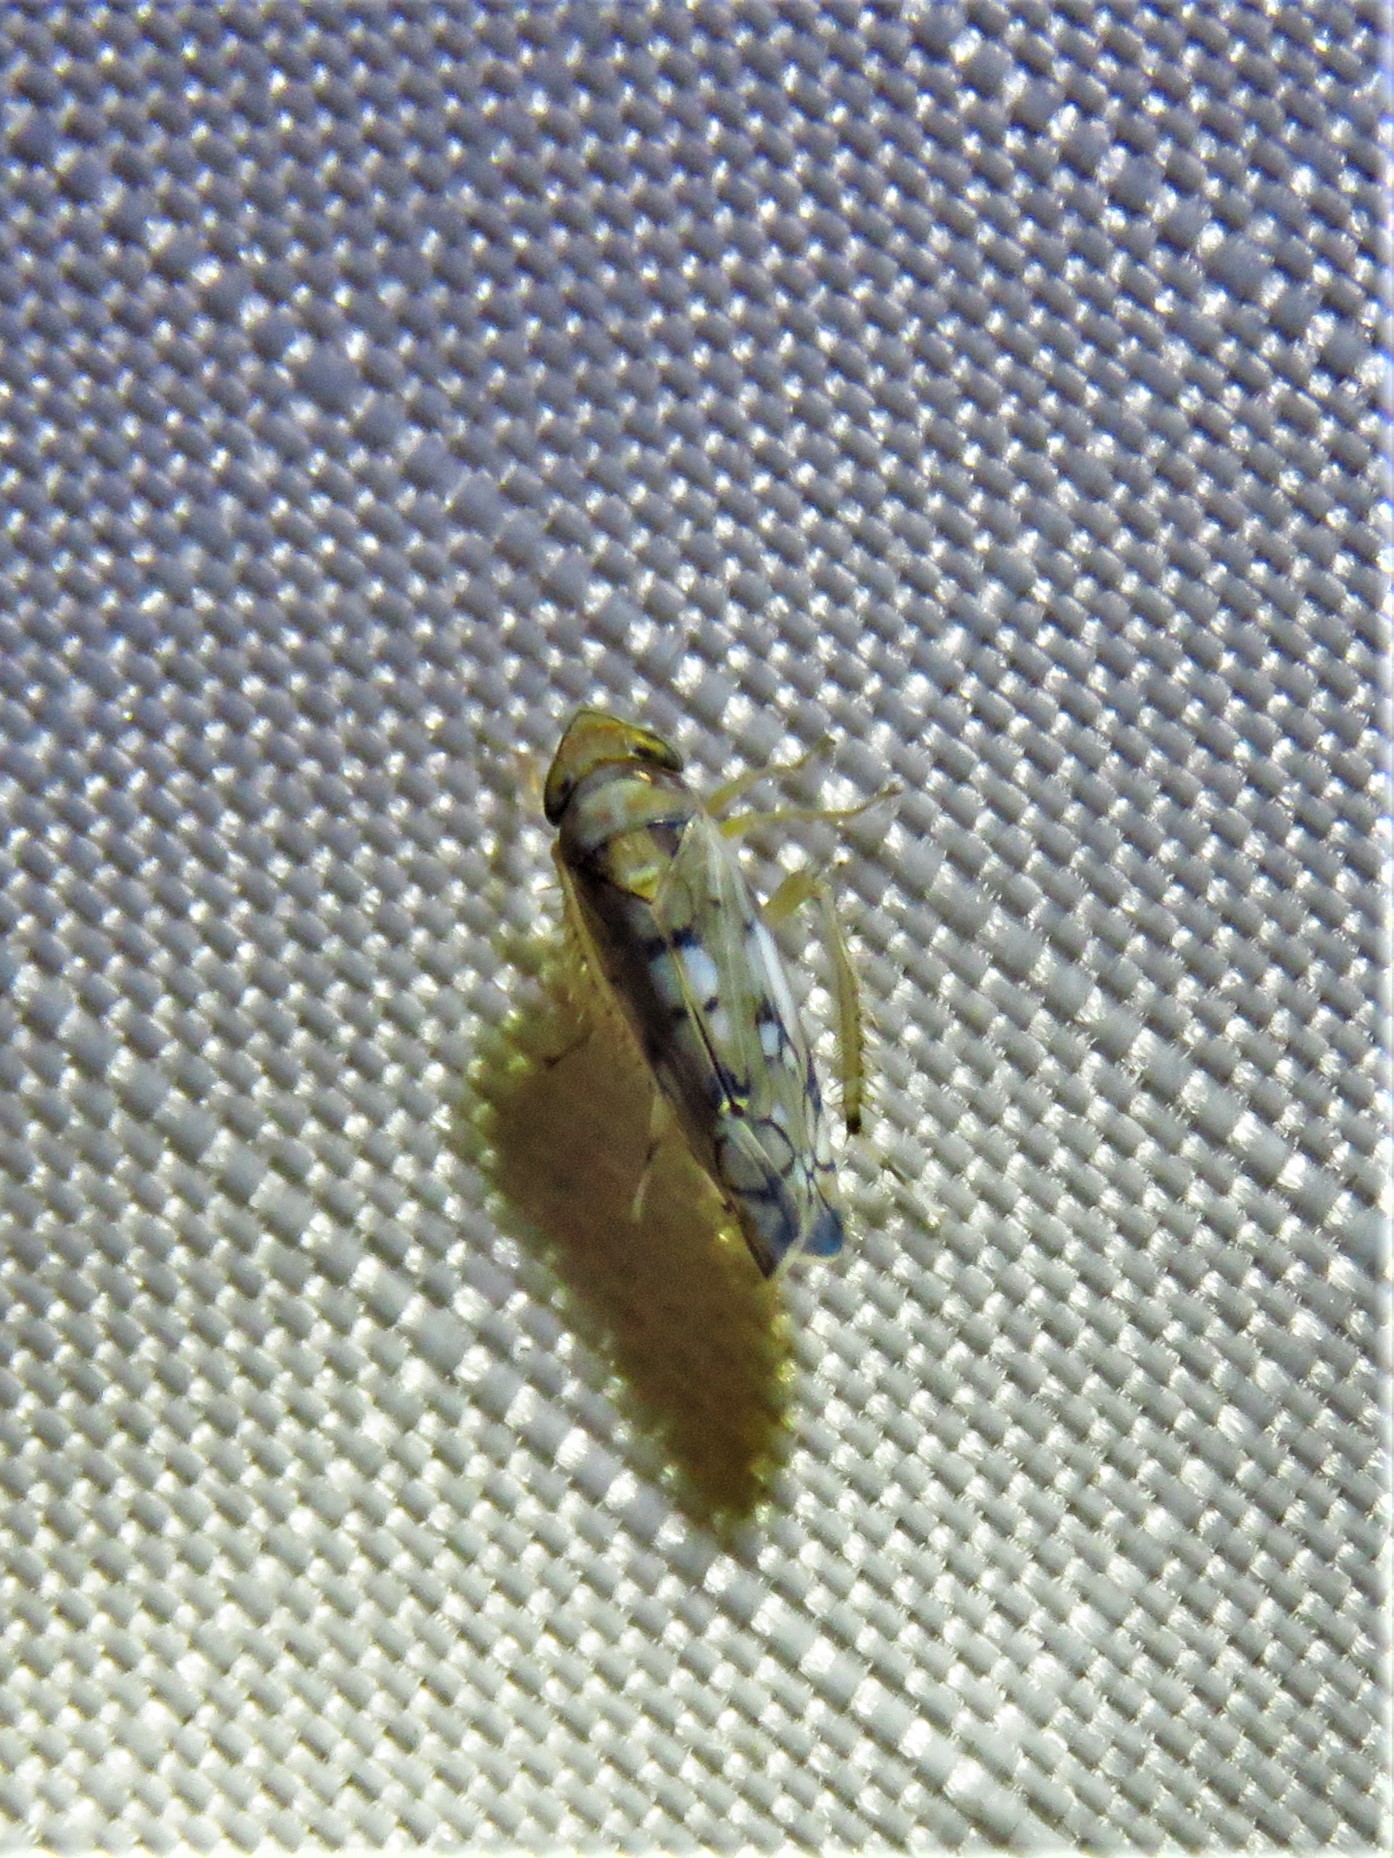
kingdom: Animalia
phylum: Arthropoda
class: Insecta
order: Hemiptera
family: Cicadellidae
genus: Scaphoideus
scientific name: Scaphoideus opalinus
